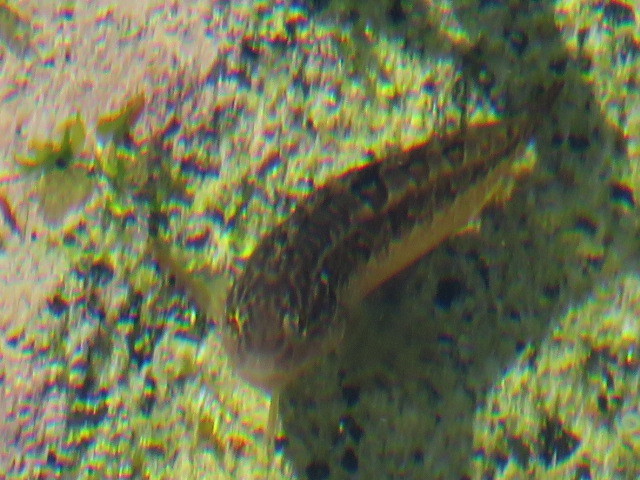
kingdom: Animalia
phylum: Chordata
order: Perciformes
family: Clinidae
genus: Clinus
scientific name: Clinus superciliosus
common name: Super klipfish
